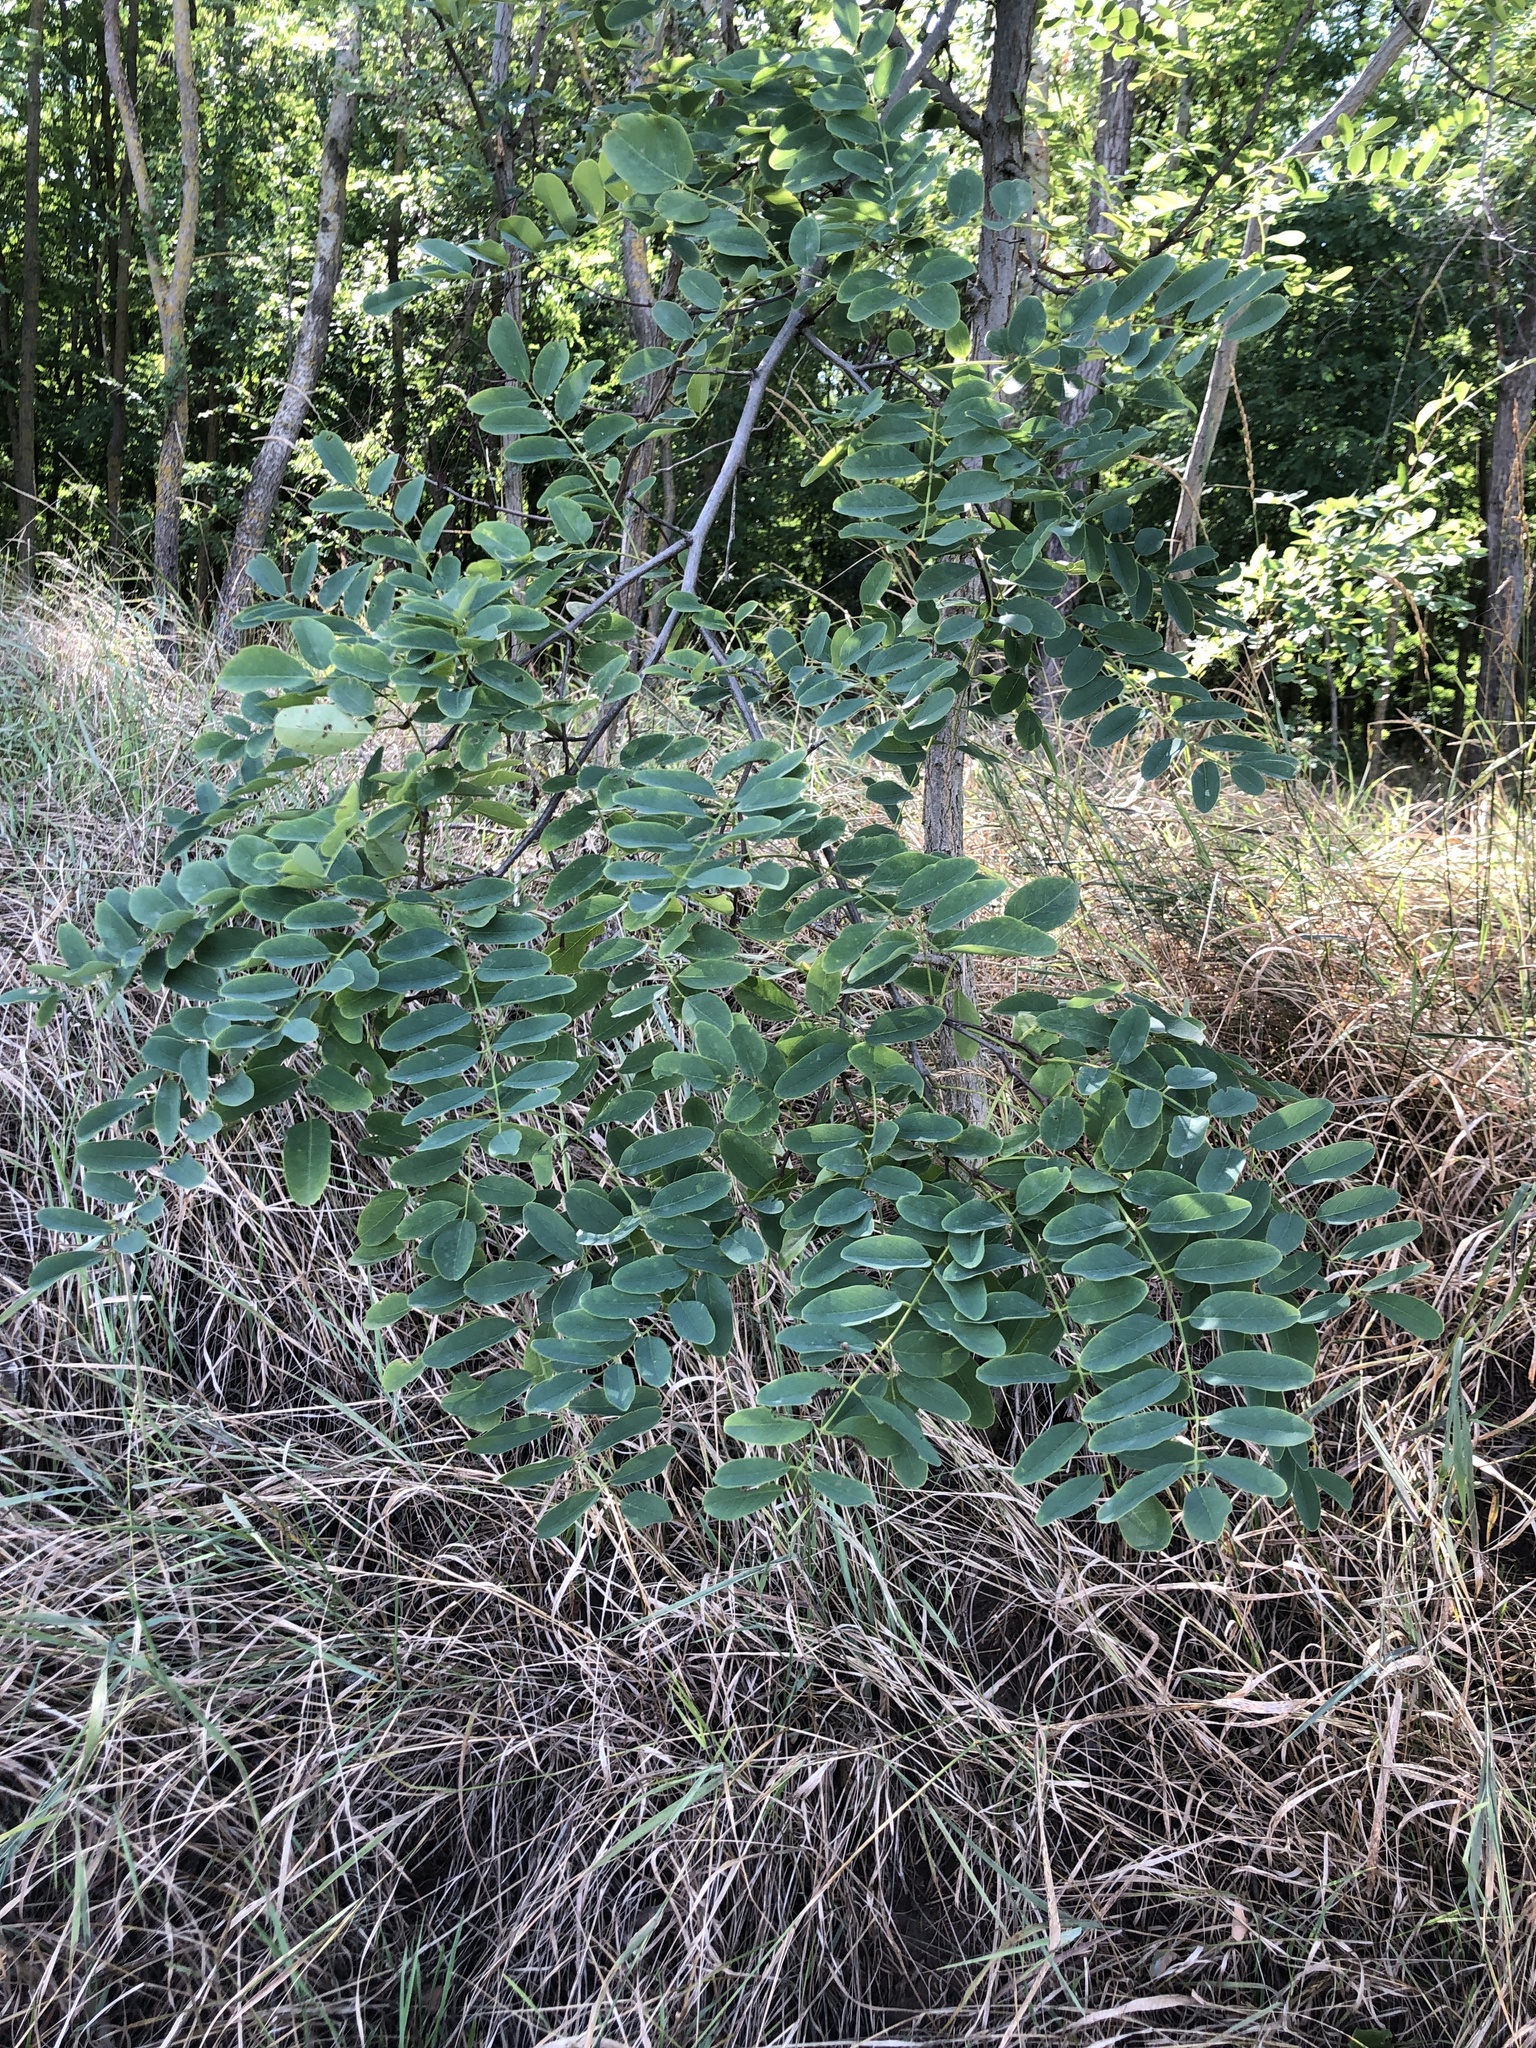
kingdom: Plantae
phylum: Tracheophyta
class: Magnoliopsida
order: Fabales
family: Fabaceae
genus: Robinia
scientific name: Robinia pseudoacacia
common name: Black locust
